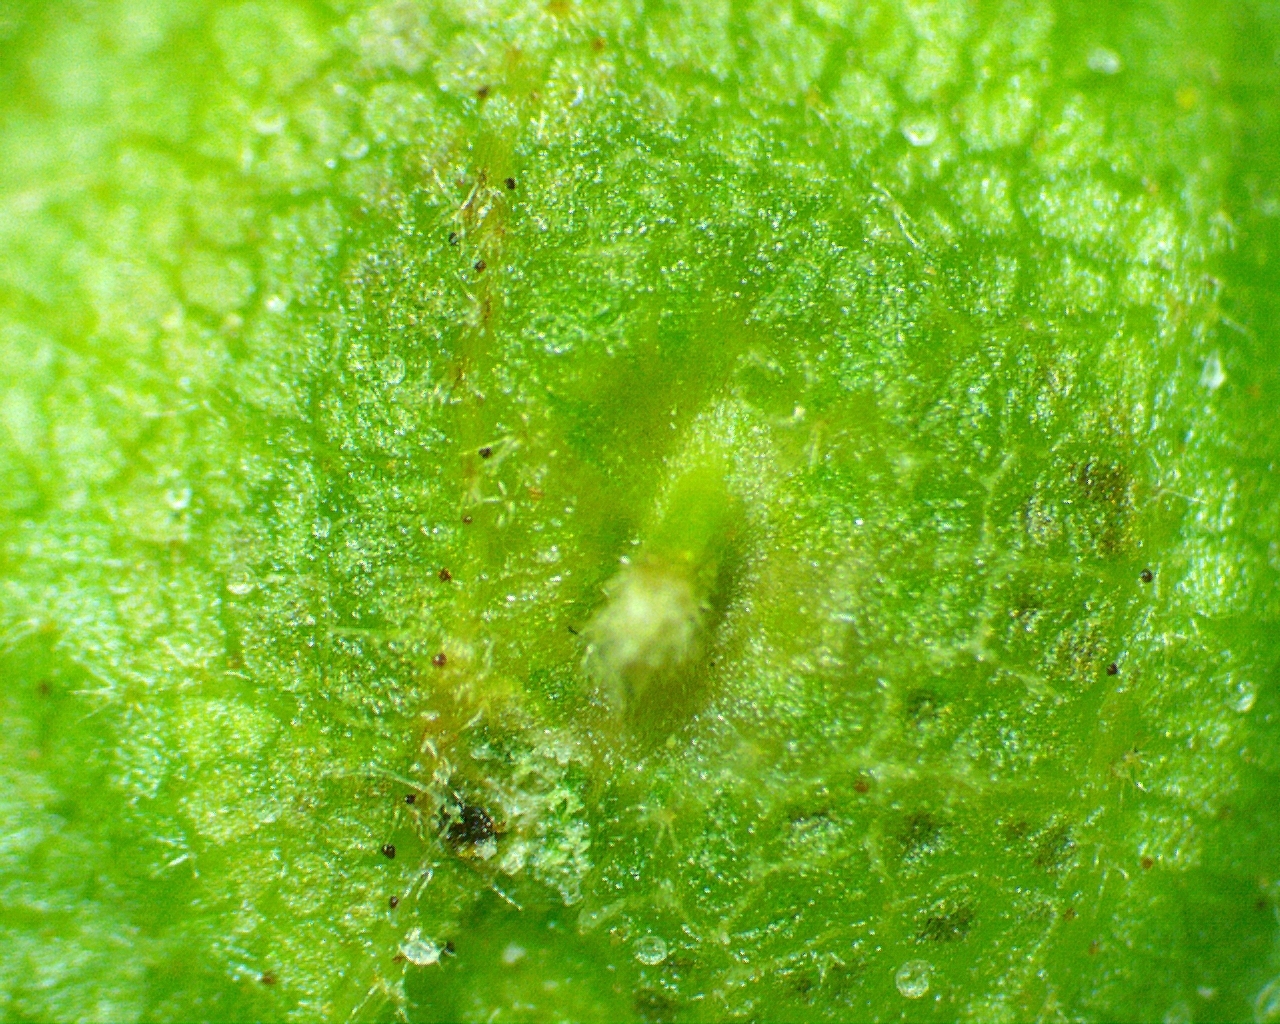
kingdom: Animalia
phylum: Arthropoda
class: Insecta
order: Hemiptera
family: Phylloxeridae
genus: Phylloxera
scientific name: Phylloxera caryaefoliae
